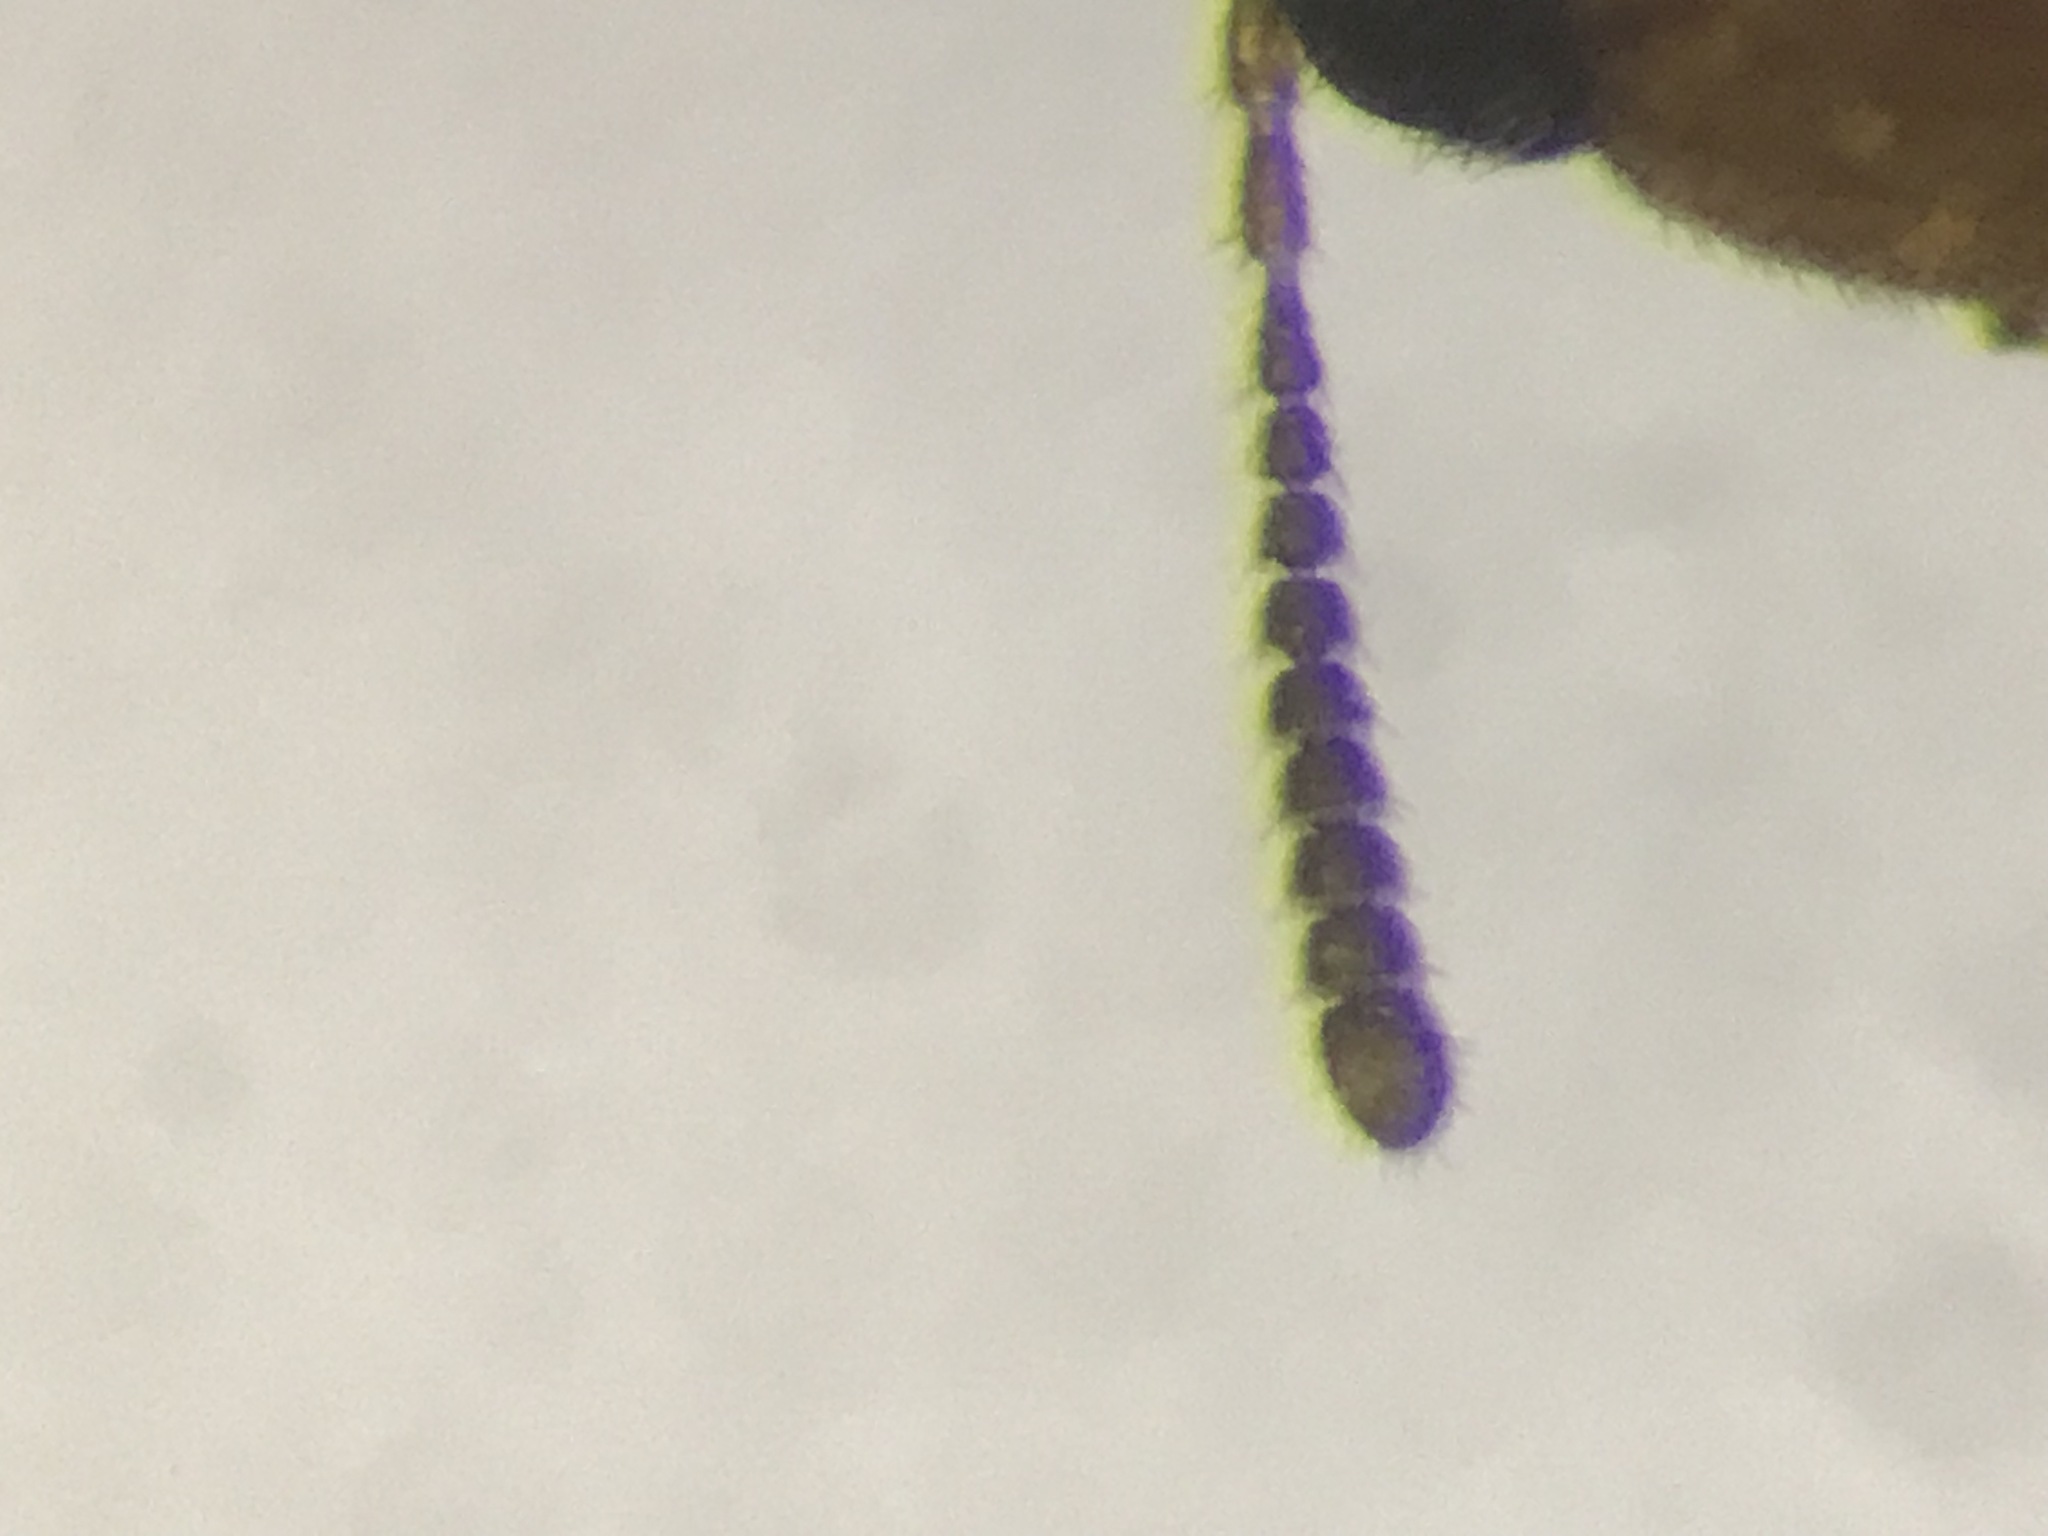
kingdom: Animalia
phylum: Arthropoda
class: Insecta
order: Coleoptera
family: Staphylinidae
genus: Oxypoda
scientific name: Oxypoda perexilis
